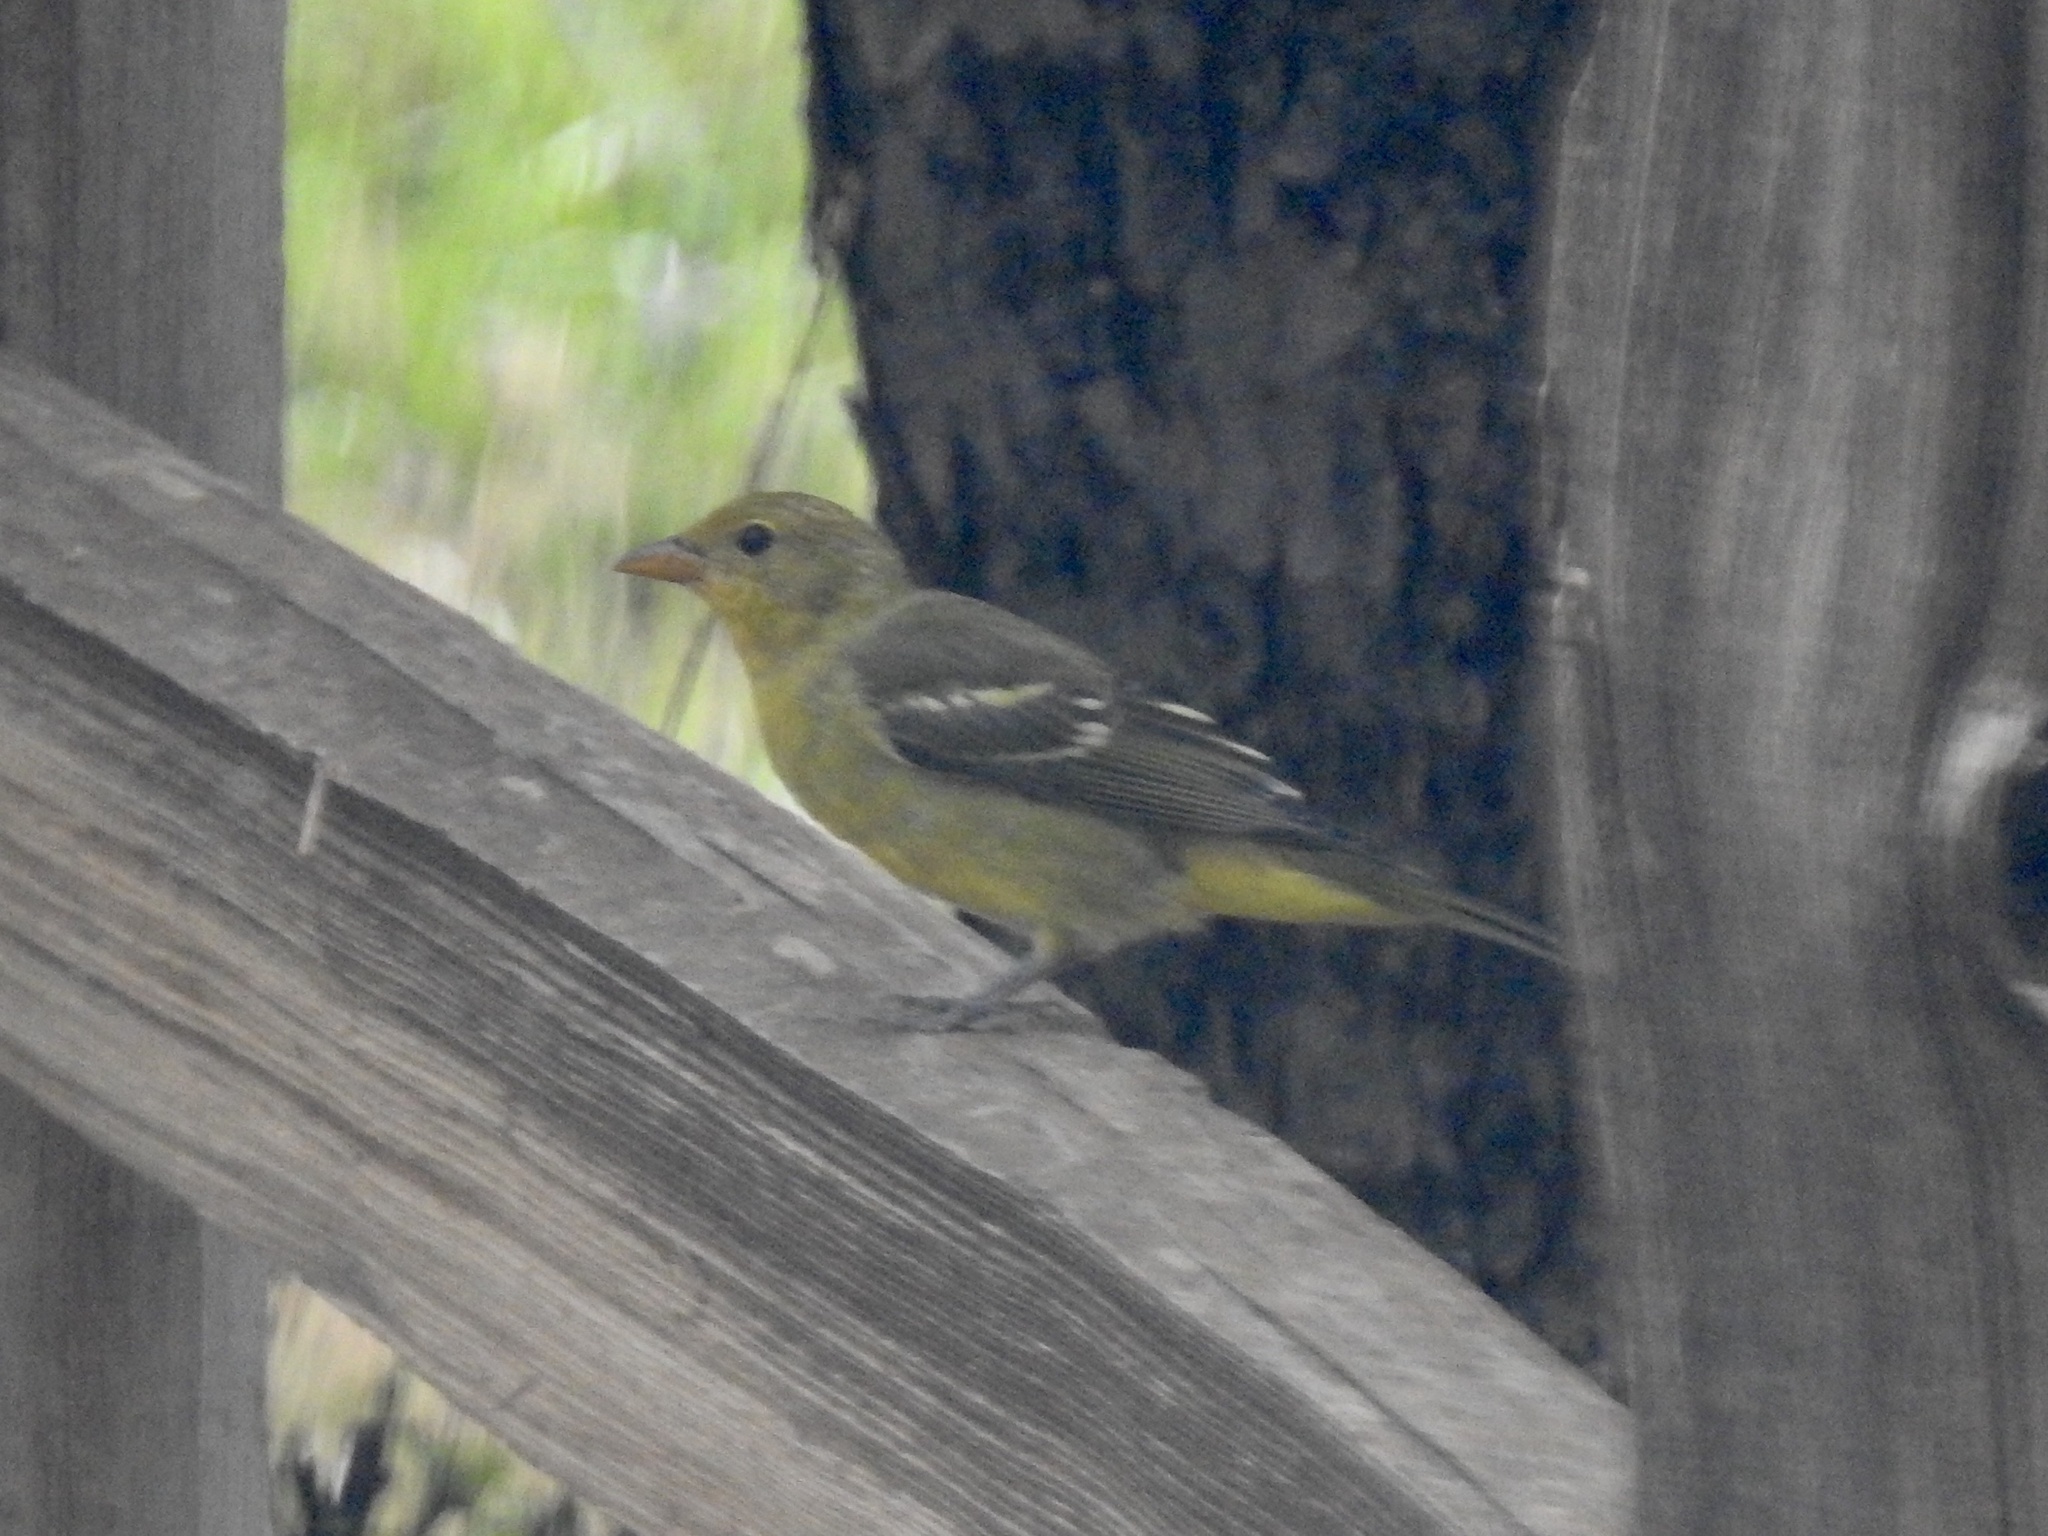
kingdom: Animalia
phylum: Chordata
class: Aves
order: Passeriformes
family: Cardinalidae
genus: Piranga
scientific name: Piranga ludoviciana
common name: Western tanager
